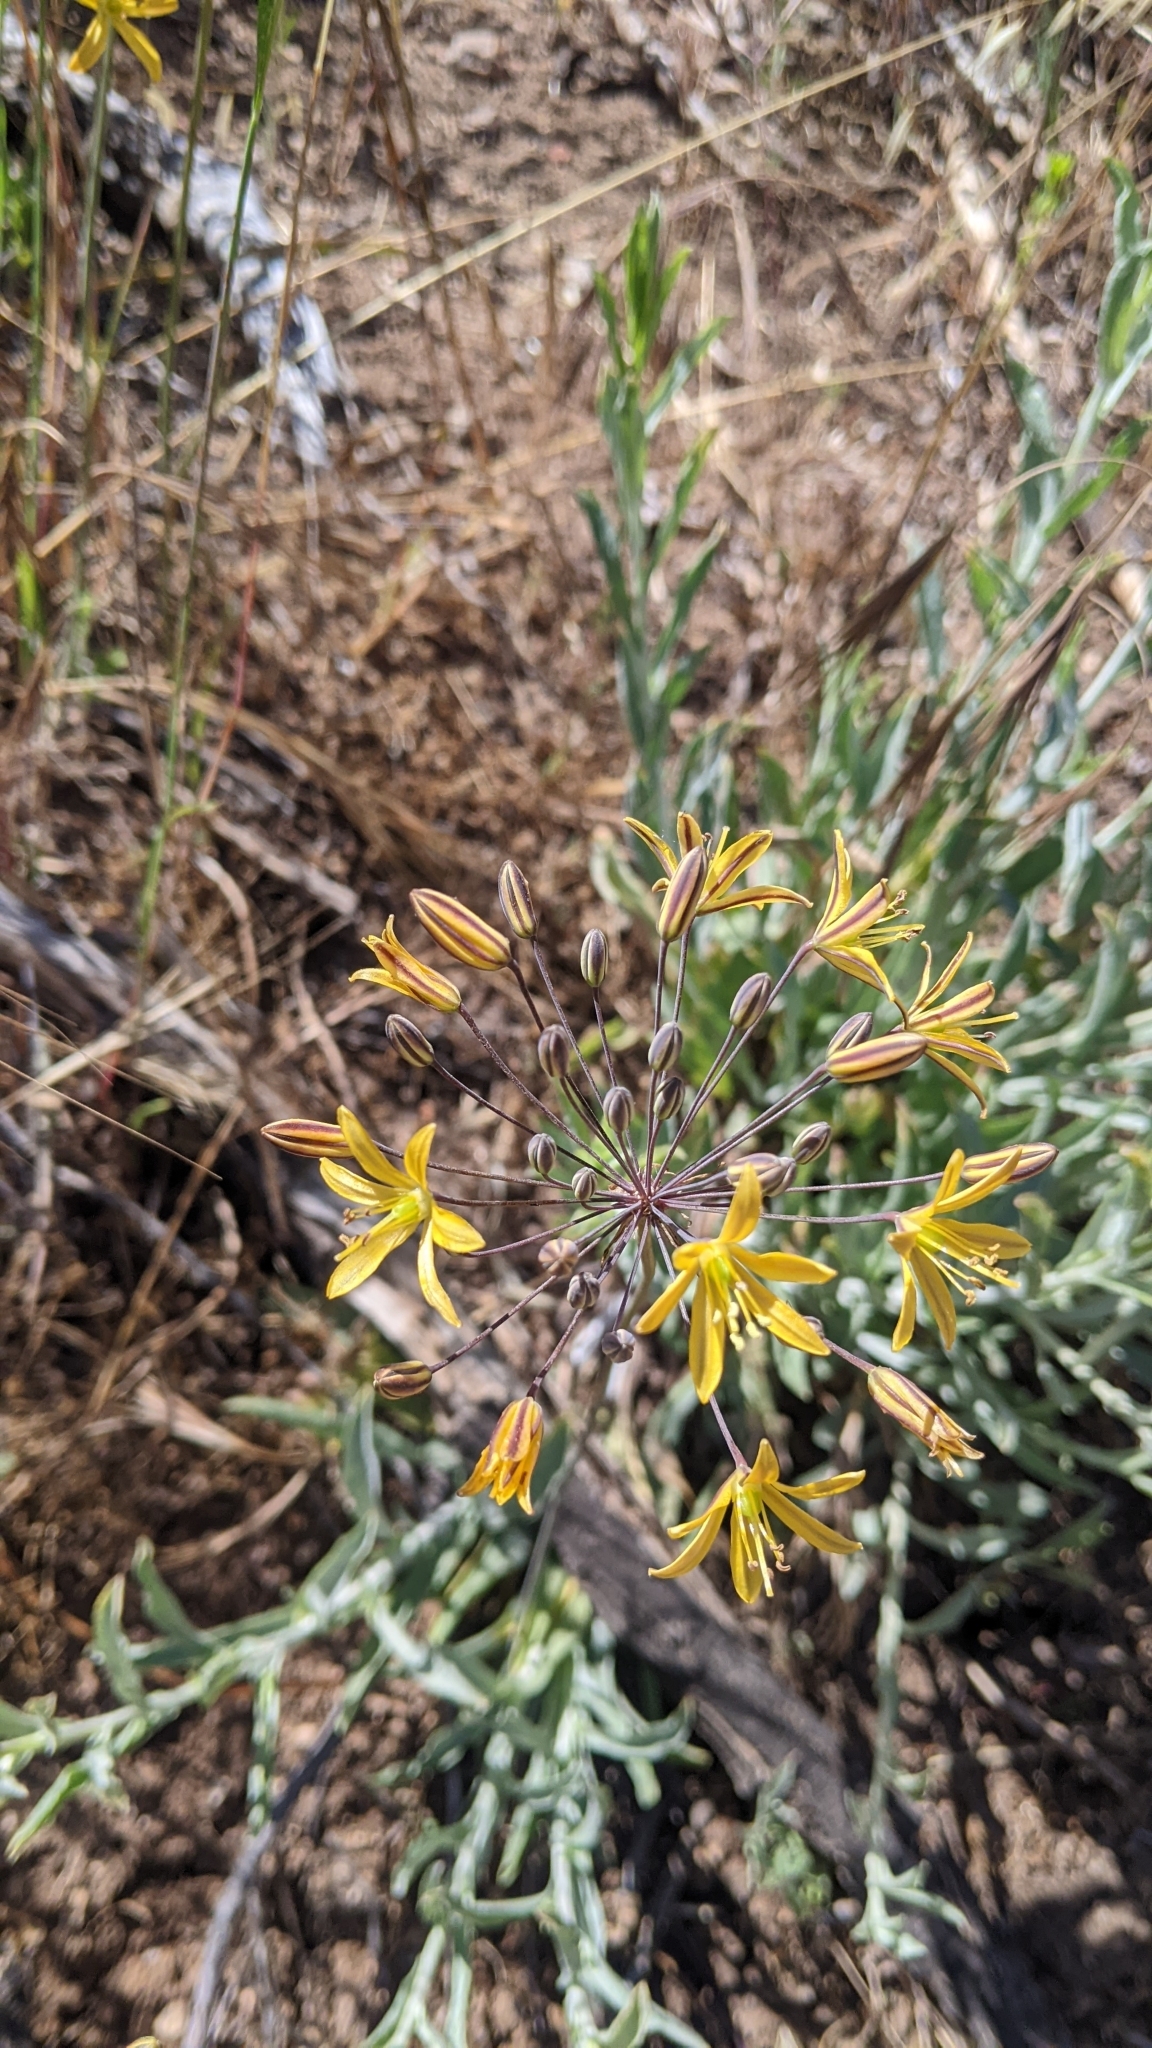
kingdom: Plantae
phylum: Tracheophyta
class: Liliopsida
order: Asparagales
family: Asparagaceae
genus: Bloomeria
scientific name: Bloomeria crocea
